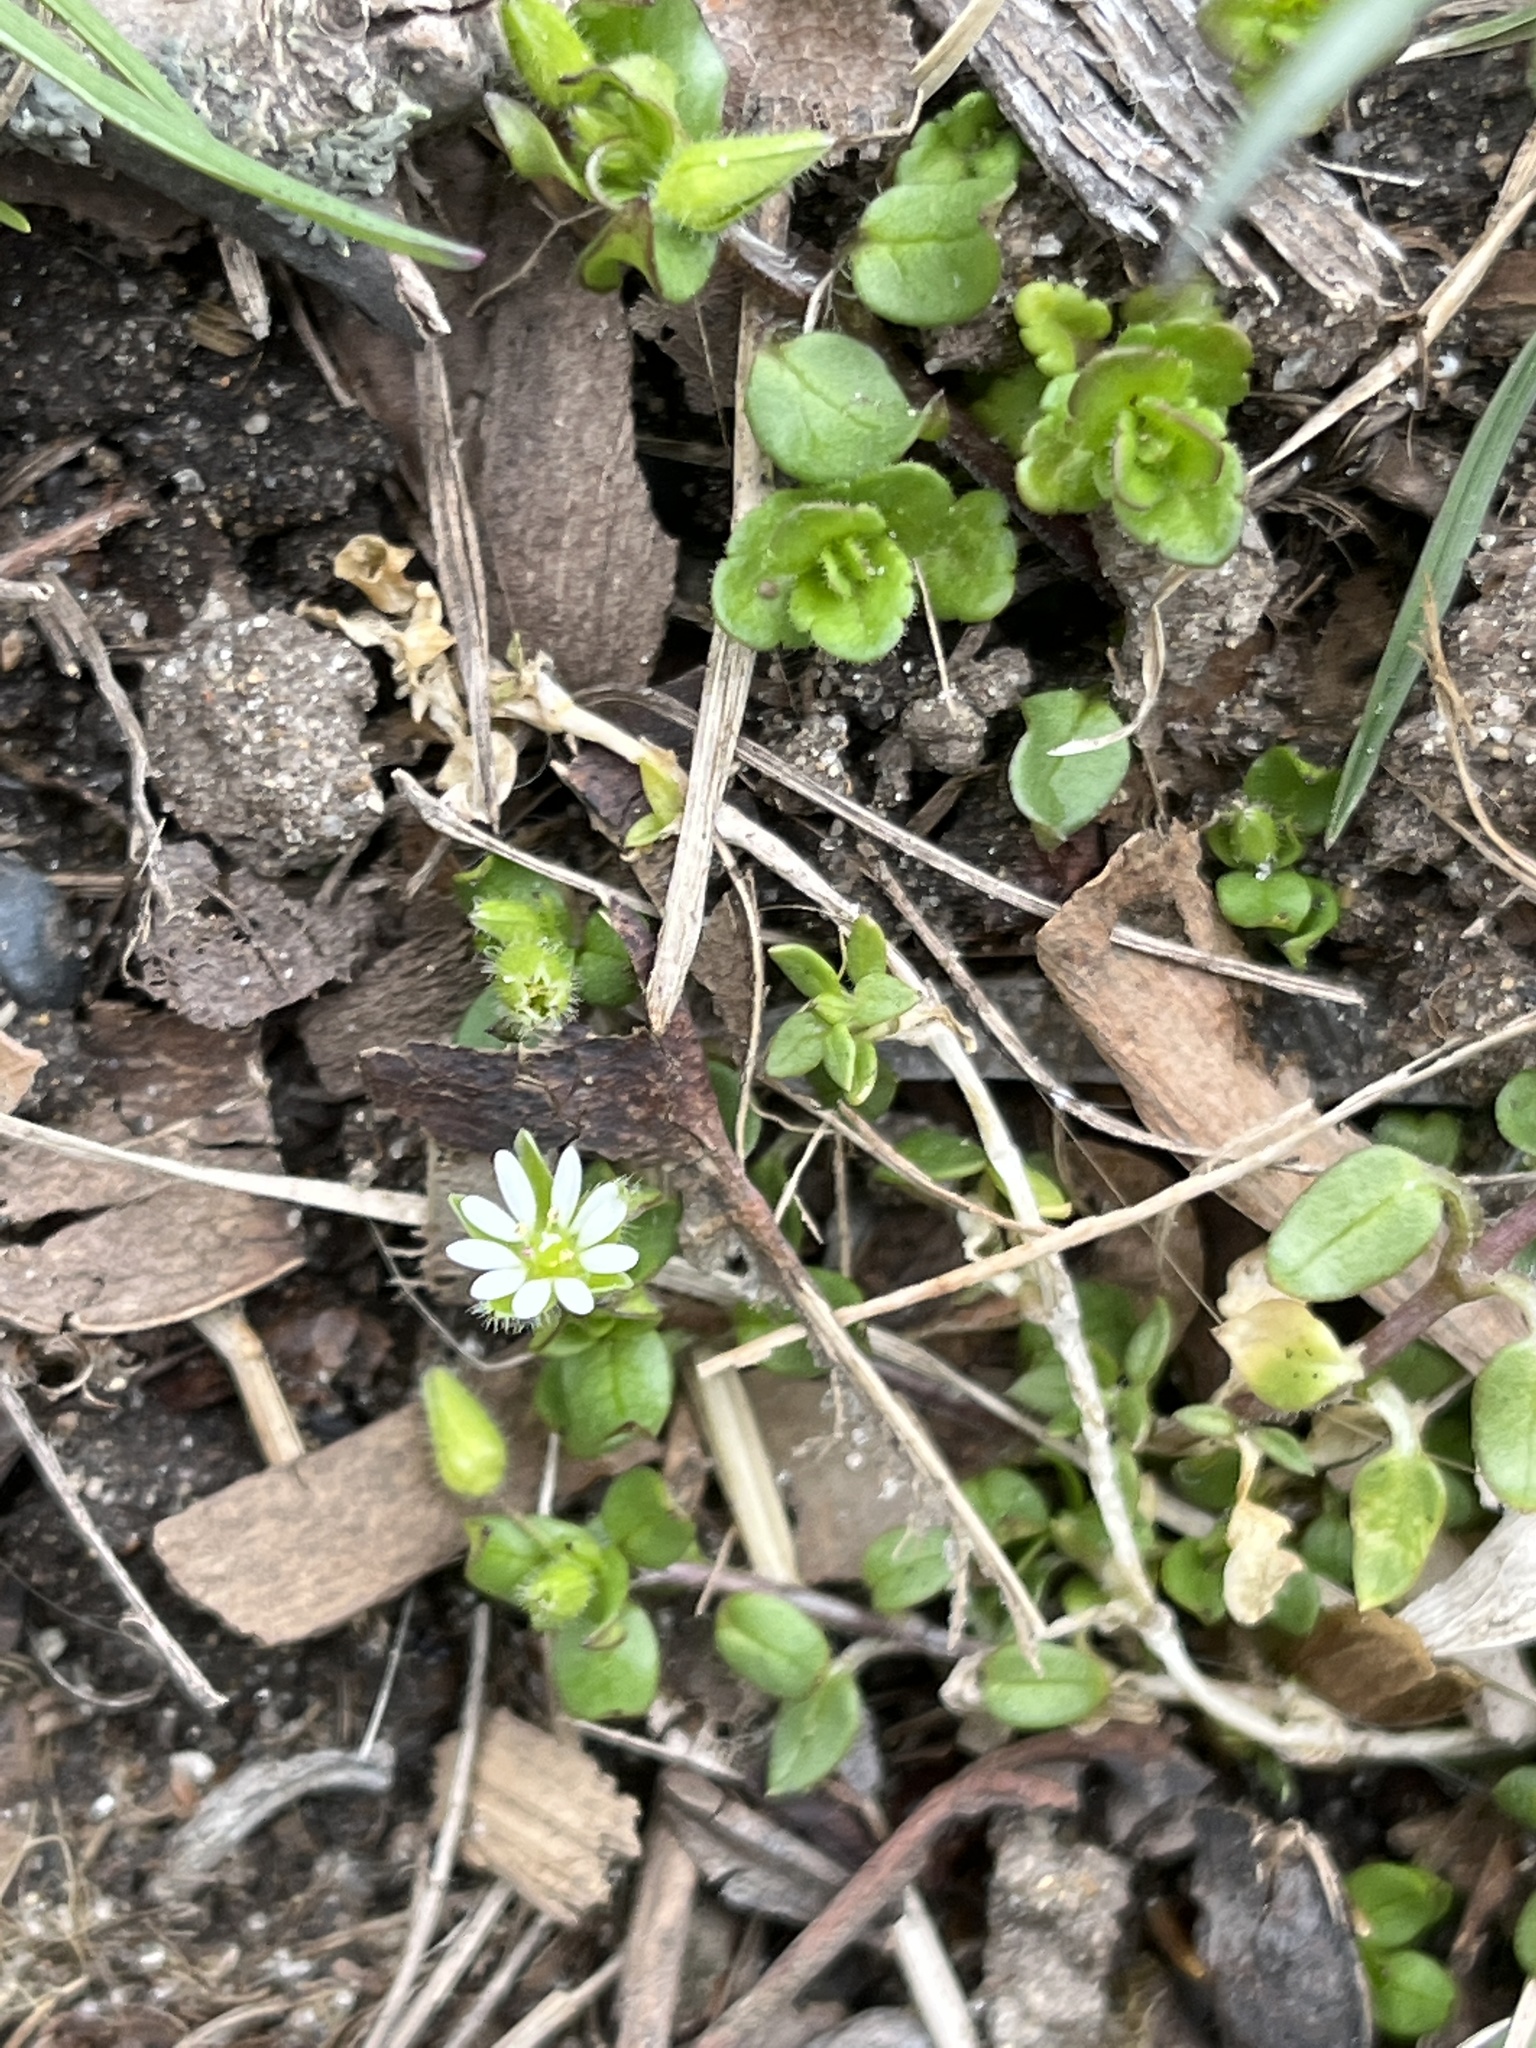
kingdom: Plantae
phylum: Tracheophyta
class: Magnoliopsida
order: Caryophyllales
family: Caryophyllaceae
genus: Stellaria
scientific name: Stellaria media
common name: Common chickweed
